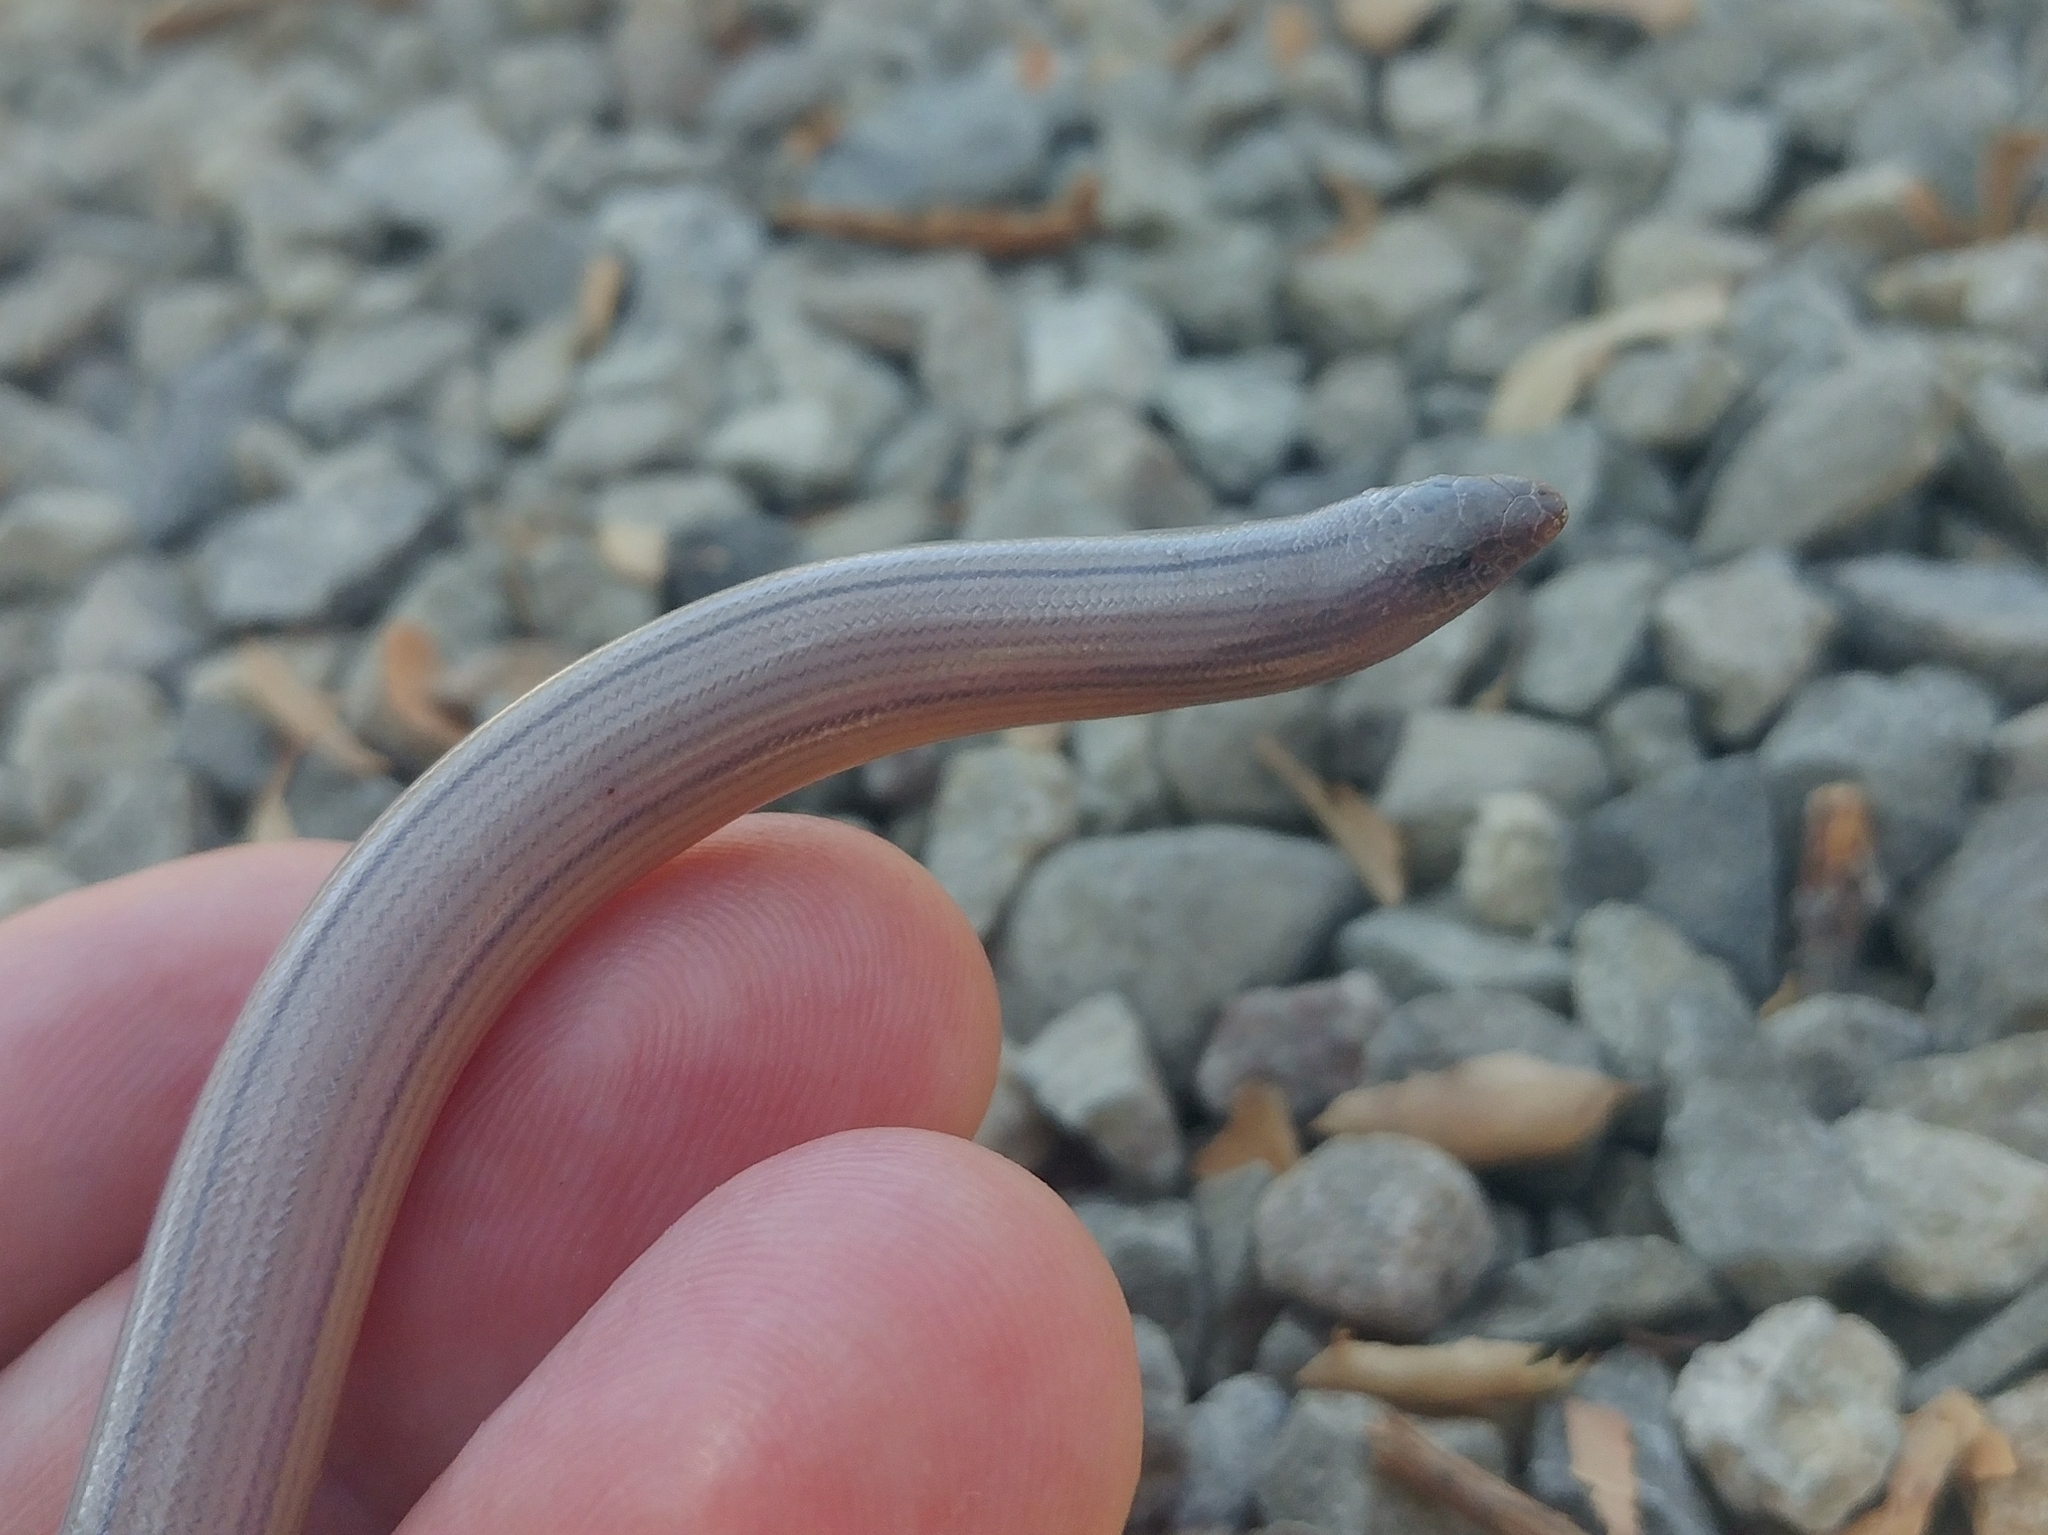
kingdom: Animalia
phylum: Chordata
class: Squamata
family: Anguidae
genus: Anniella
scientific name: Anniella stebbinsi
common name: Southern california legless lizard
